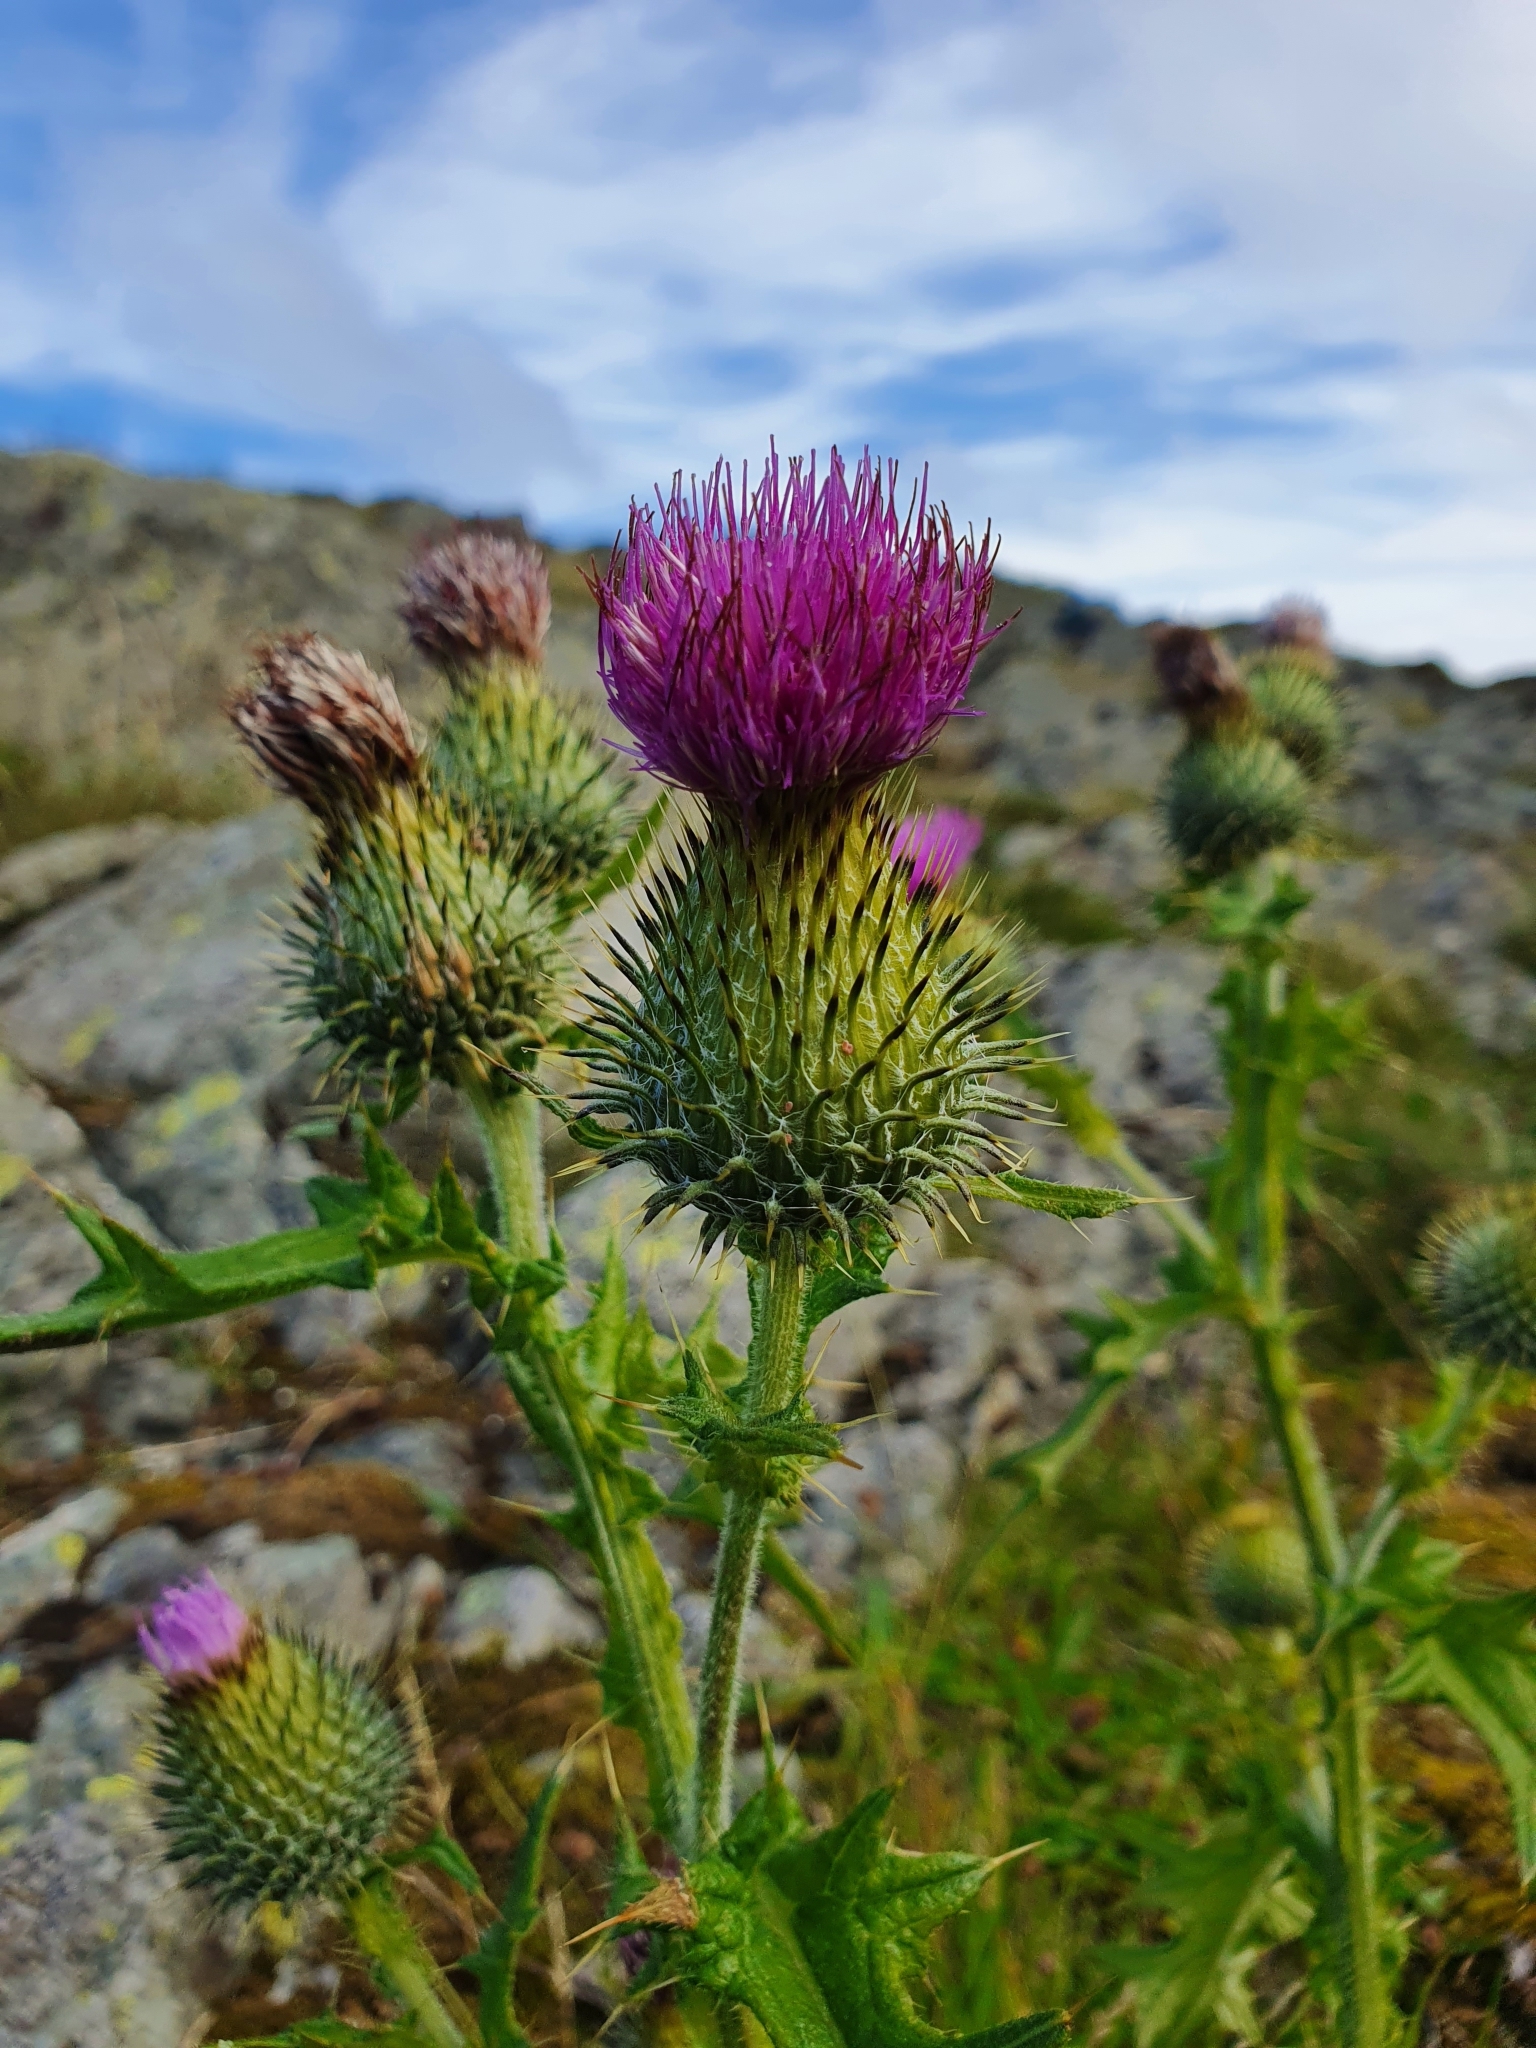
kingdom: Plantae
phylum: Tracheophyta
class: Magnoliopsida
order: Asterales
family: Asteraceae
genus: Cirsium
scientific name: Cirsium vulgare
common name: Bull thistle
